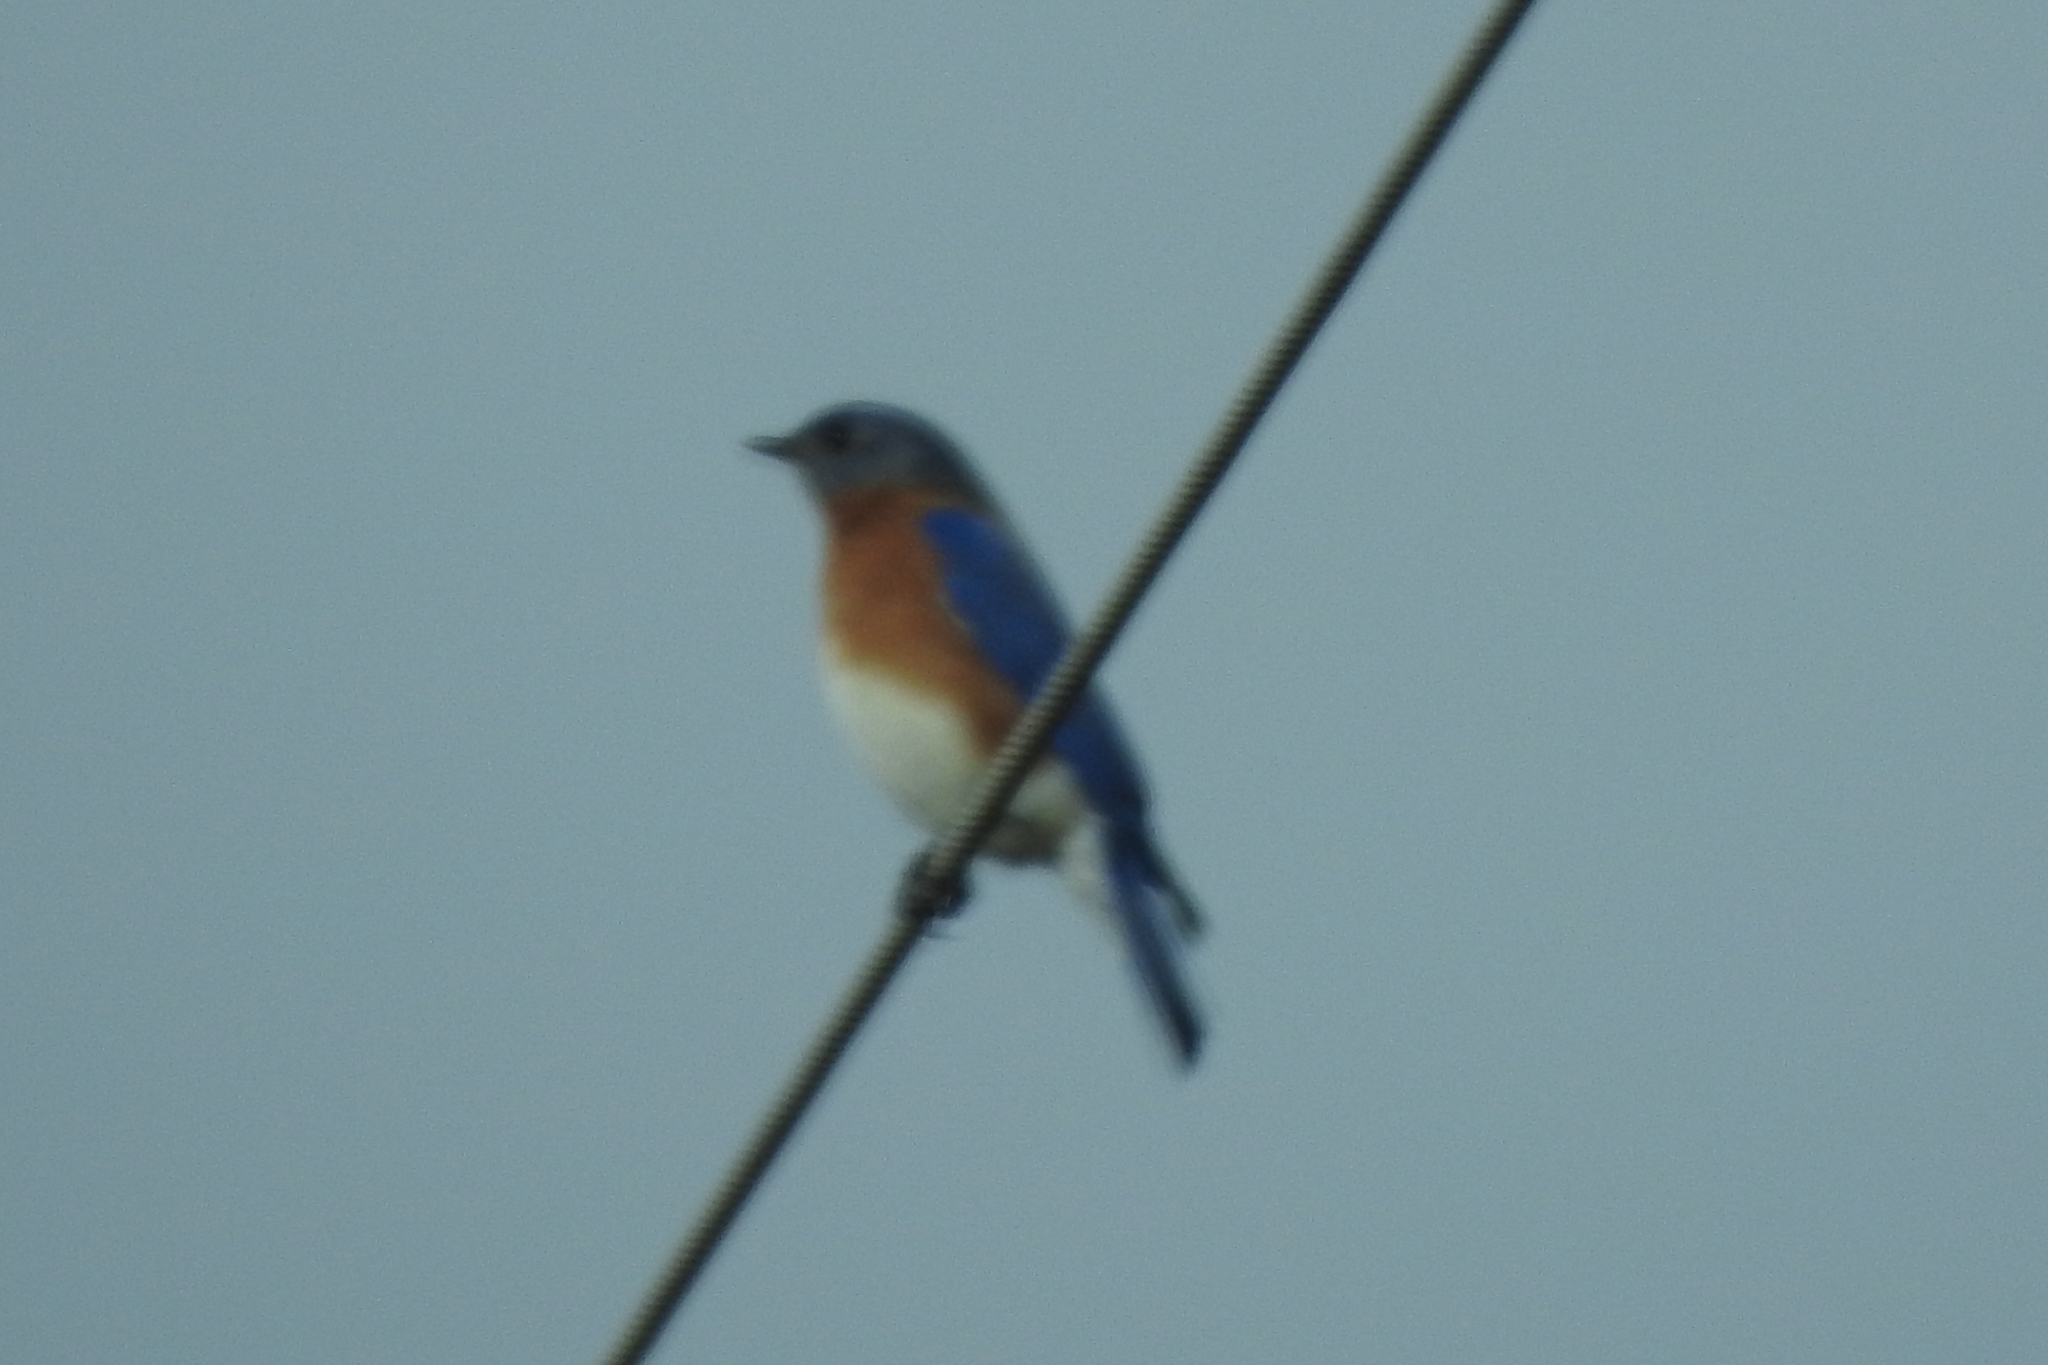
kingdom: Animalia
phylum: Chordata
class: Aves
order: Passeriformes
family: Turdidae
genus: Sialia
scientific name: Sialia sialis
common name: Eastern bluebird
